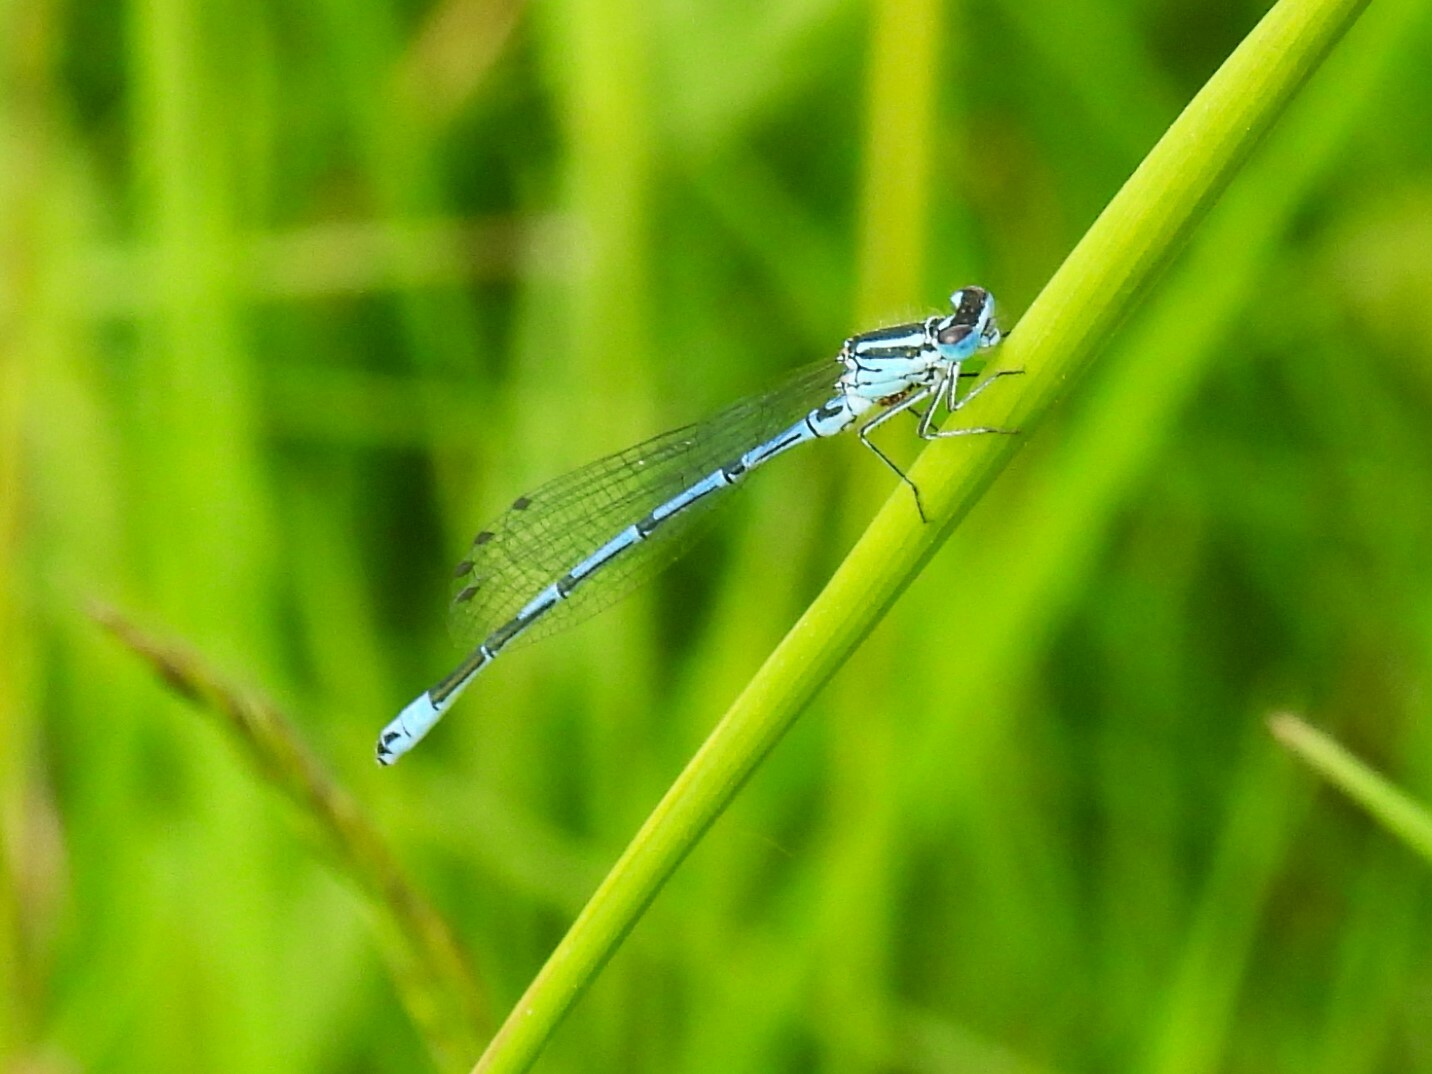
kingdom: Animalia
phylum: Arthropoda
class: Insecta
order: Odonata
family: Coenagrionidae
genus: Coenagrion
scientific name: Coenagrion puella
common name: Azure damselfly
